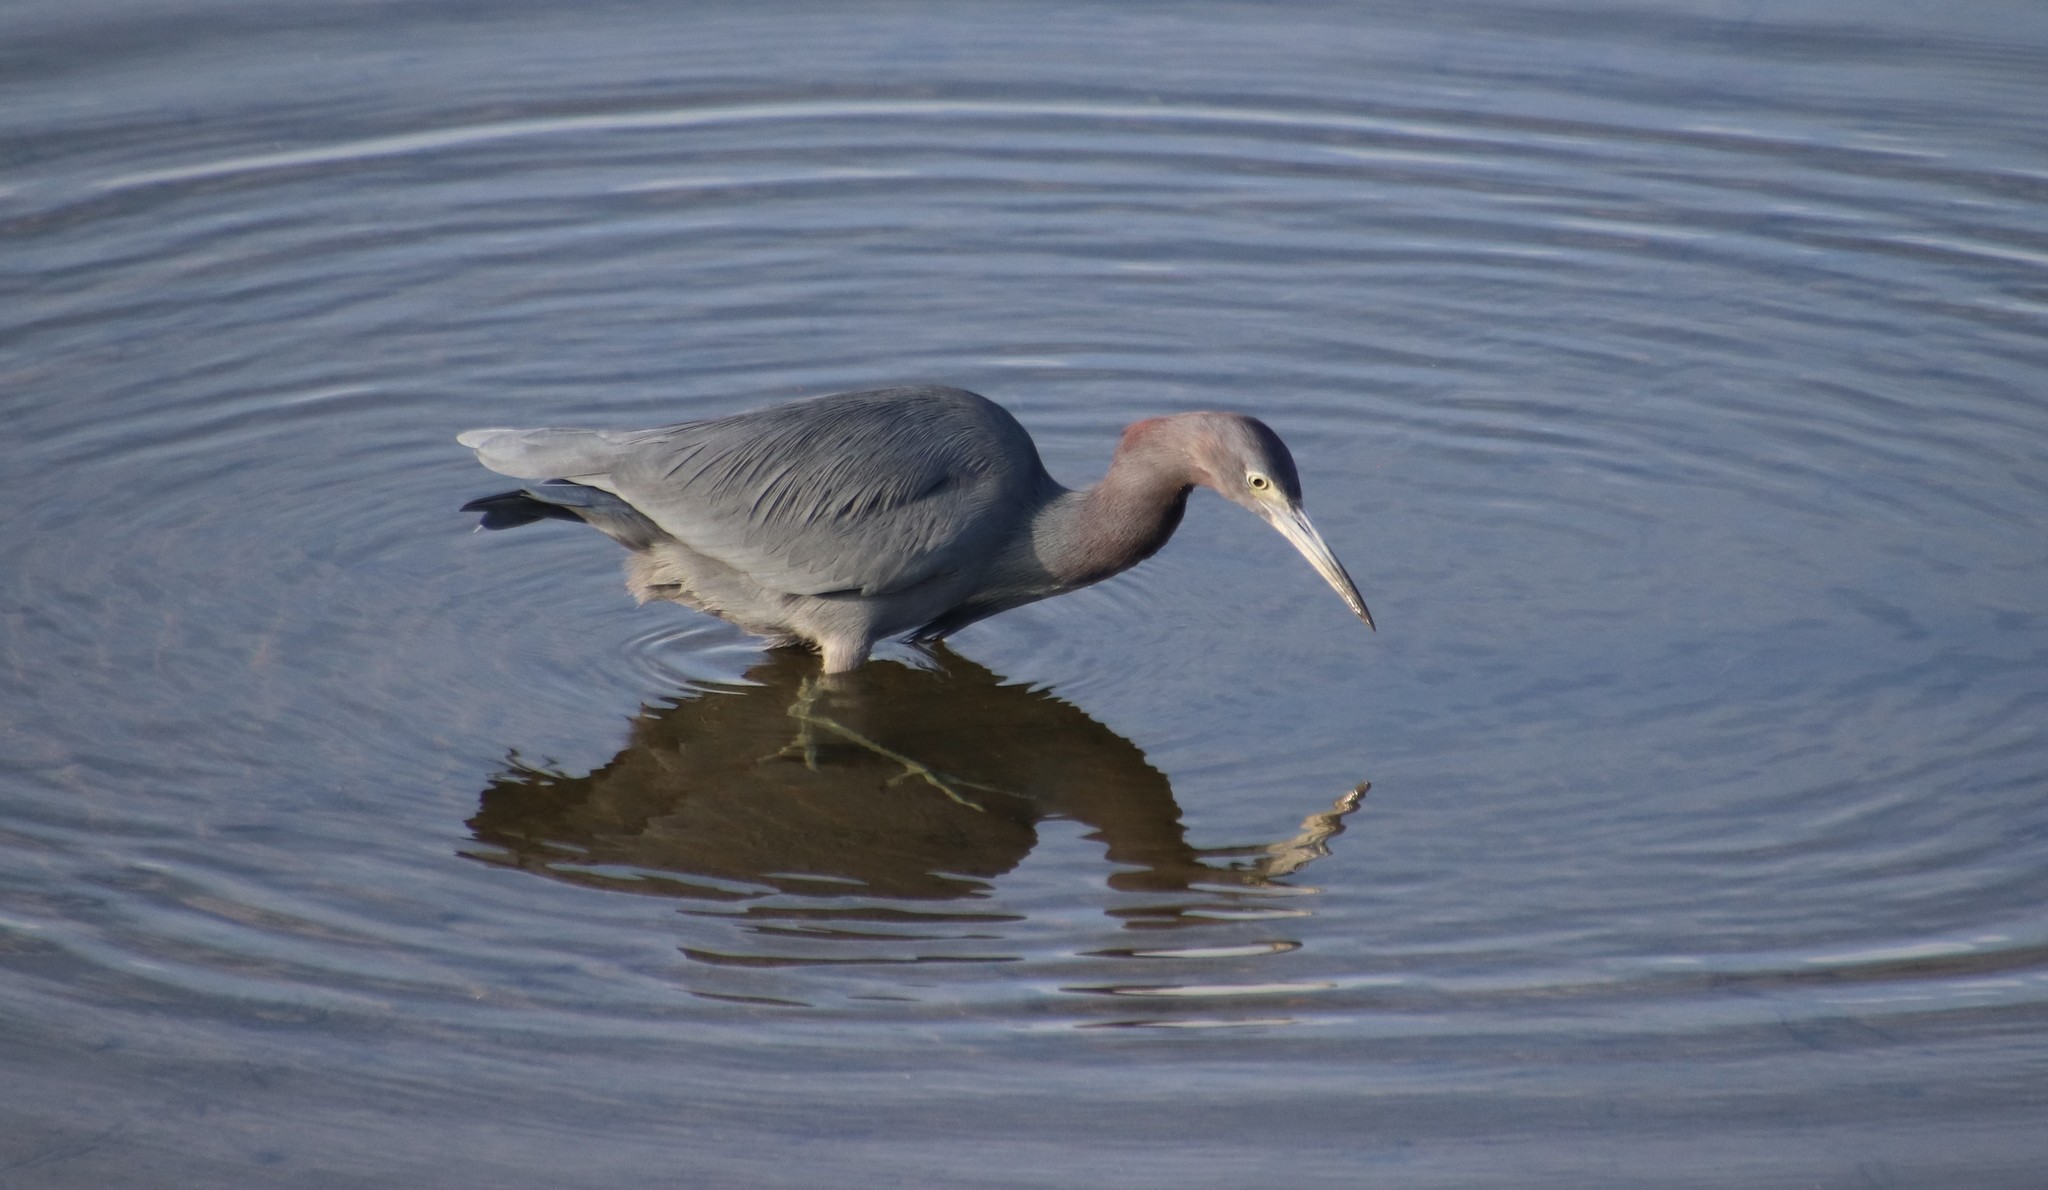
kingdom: Animalia
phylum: Chordata
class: Aves
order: Pelecaniformes
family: Ardeidae
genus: Egretta
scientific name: Egretta caerulea
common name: Little blue heron
